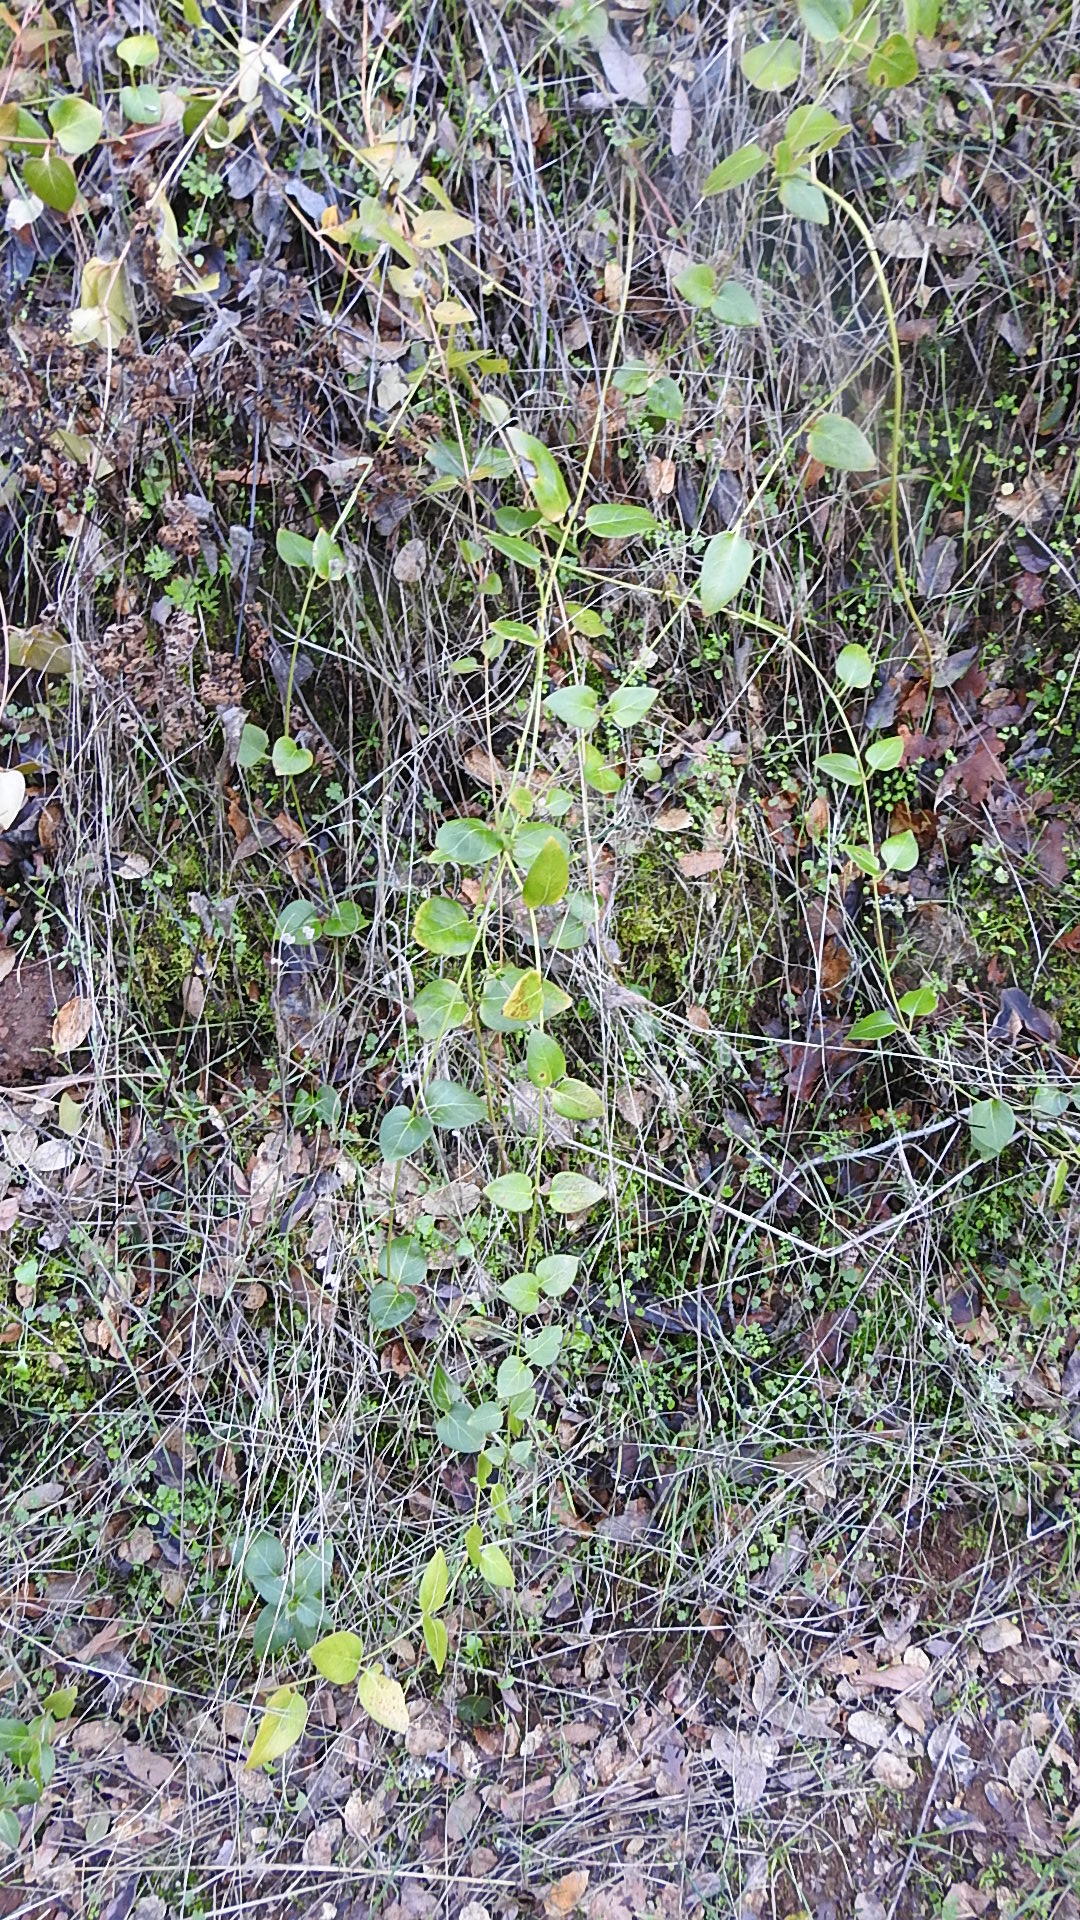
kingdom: Plantae
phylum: Tracheophyta
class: Magnoliopsida
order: Gentianales
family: Apocynaceae
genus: Vinca
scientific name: Vinca major
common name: Greater periwinkle
